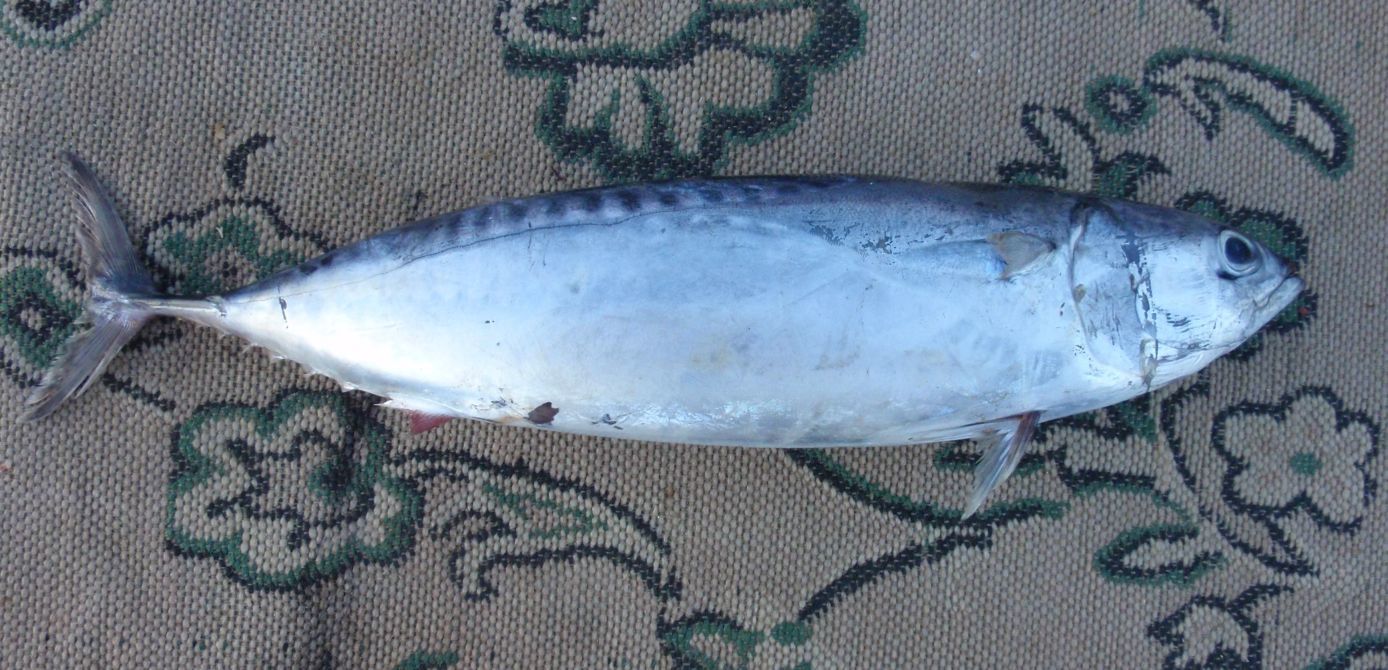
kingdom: Animalia
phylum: Chordata
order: Perciformes
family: Scombridae
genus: Auxis
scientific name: Auxis rochei
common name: Bullet tuna
